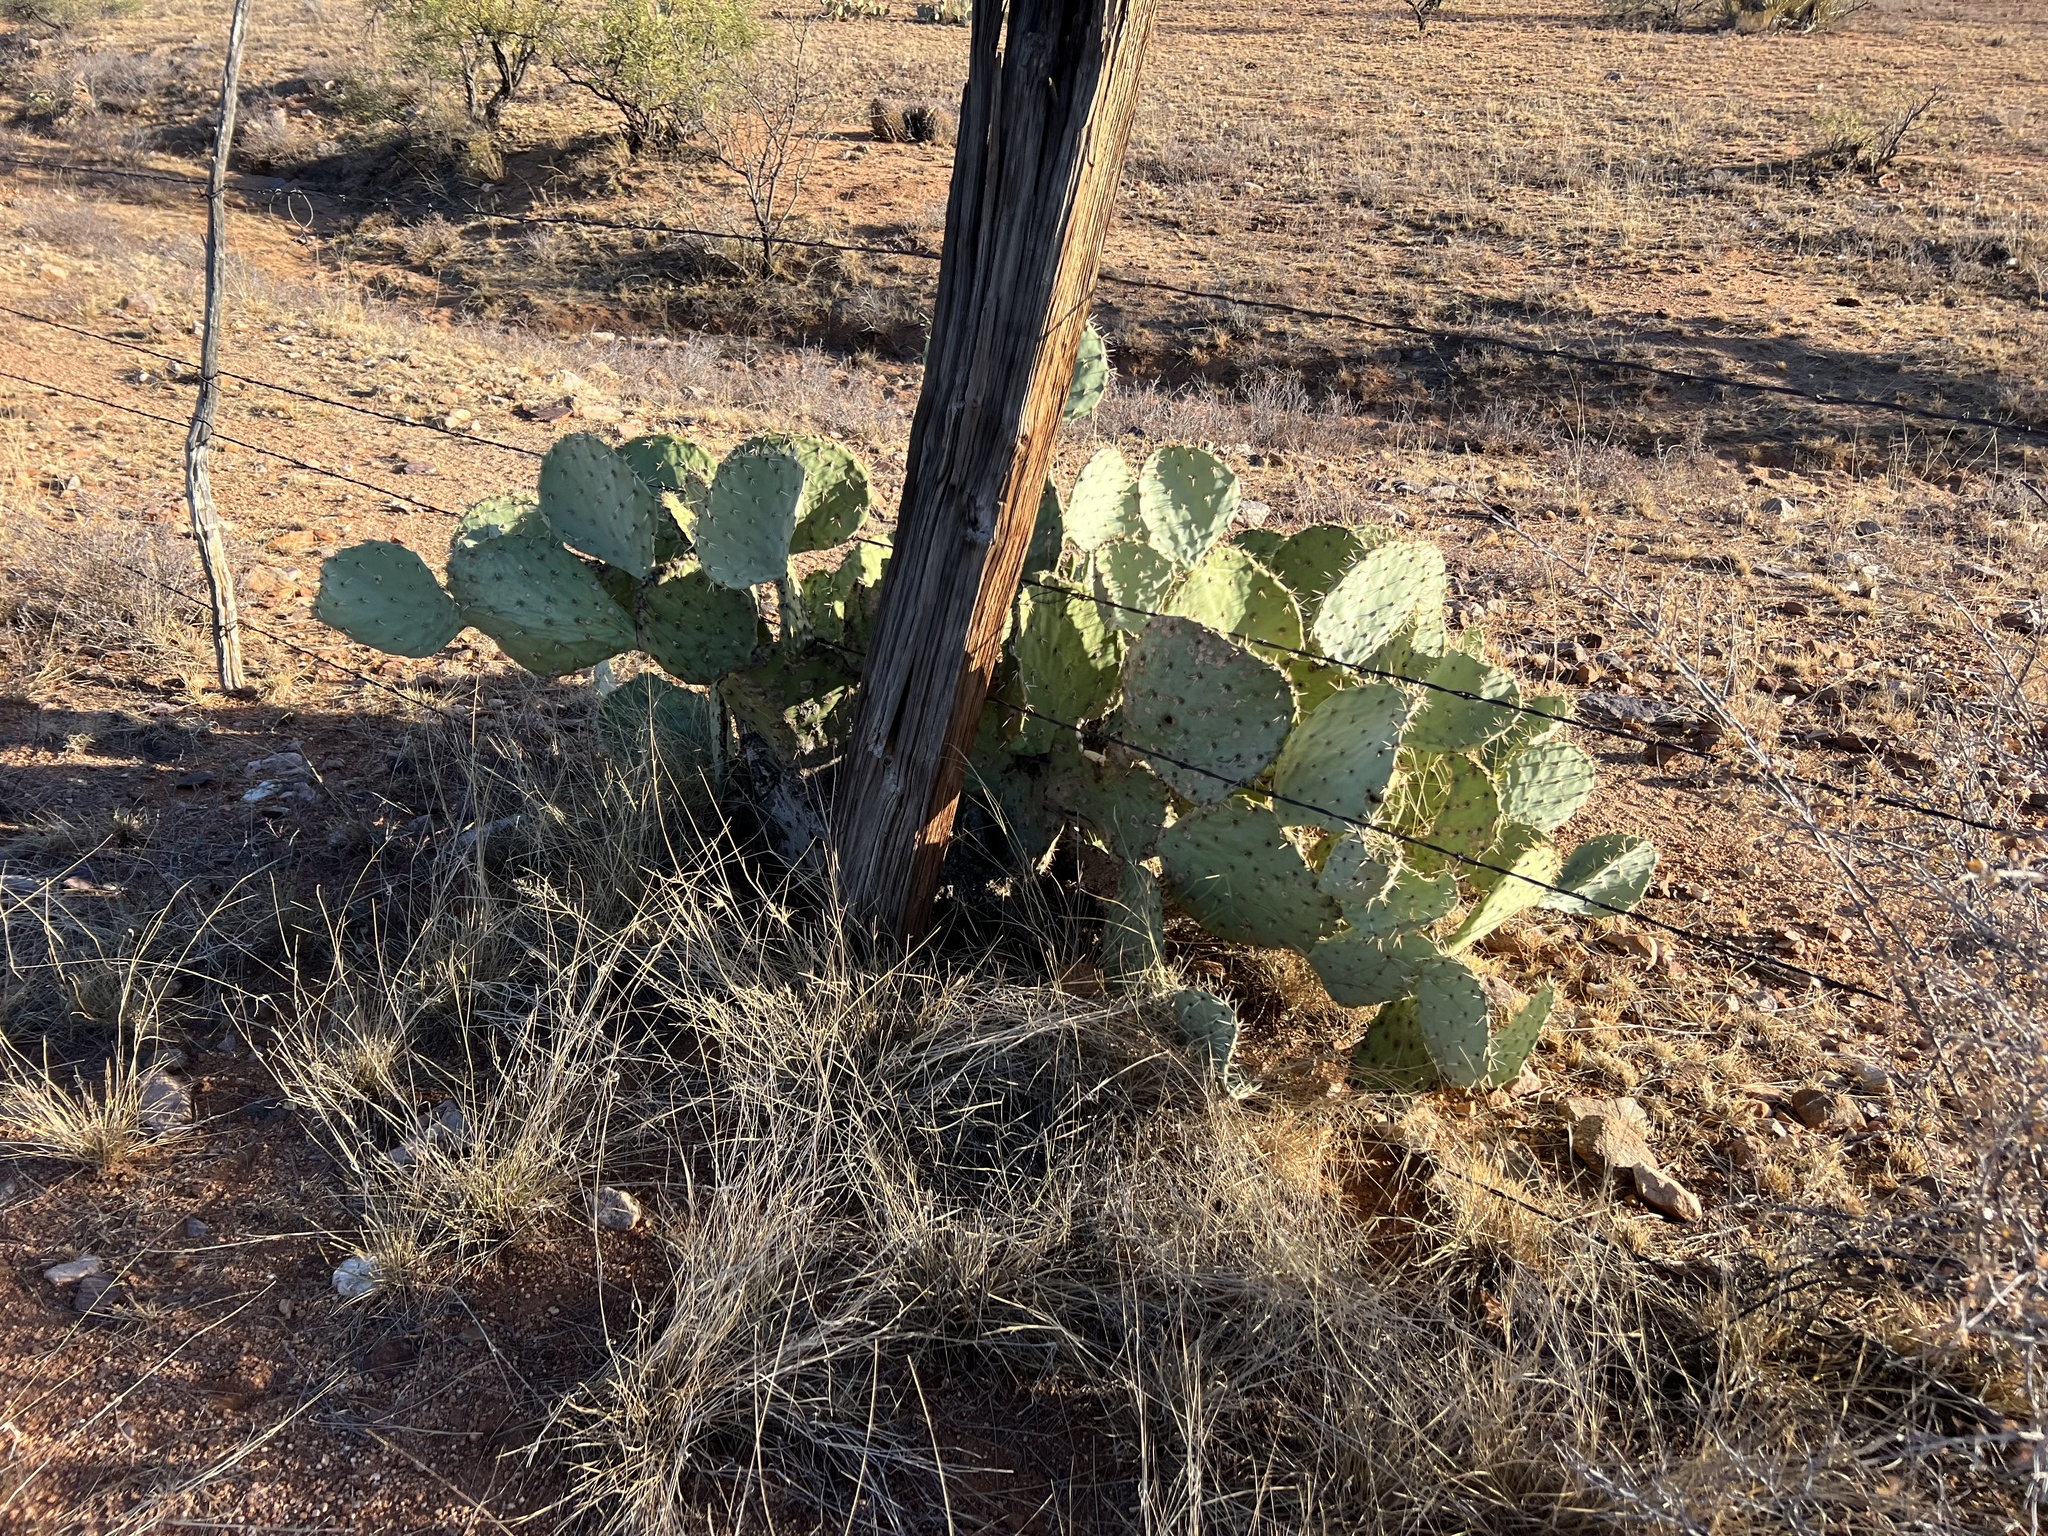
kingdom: Plantae
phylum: Tracheophyta
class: Magnoliopsida
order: Caryophyllales
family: Cactaceae
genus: Opuntia
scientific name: Opuntia engelmannii
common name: Cactus-apple
